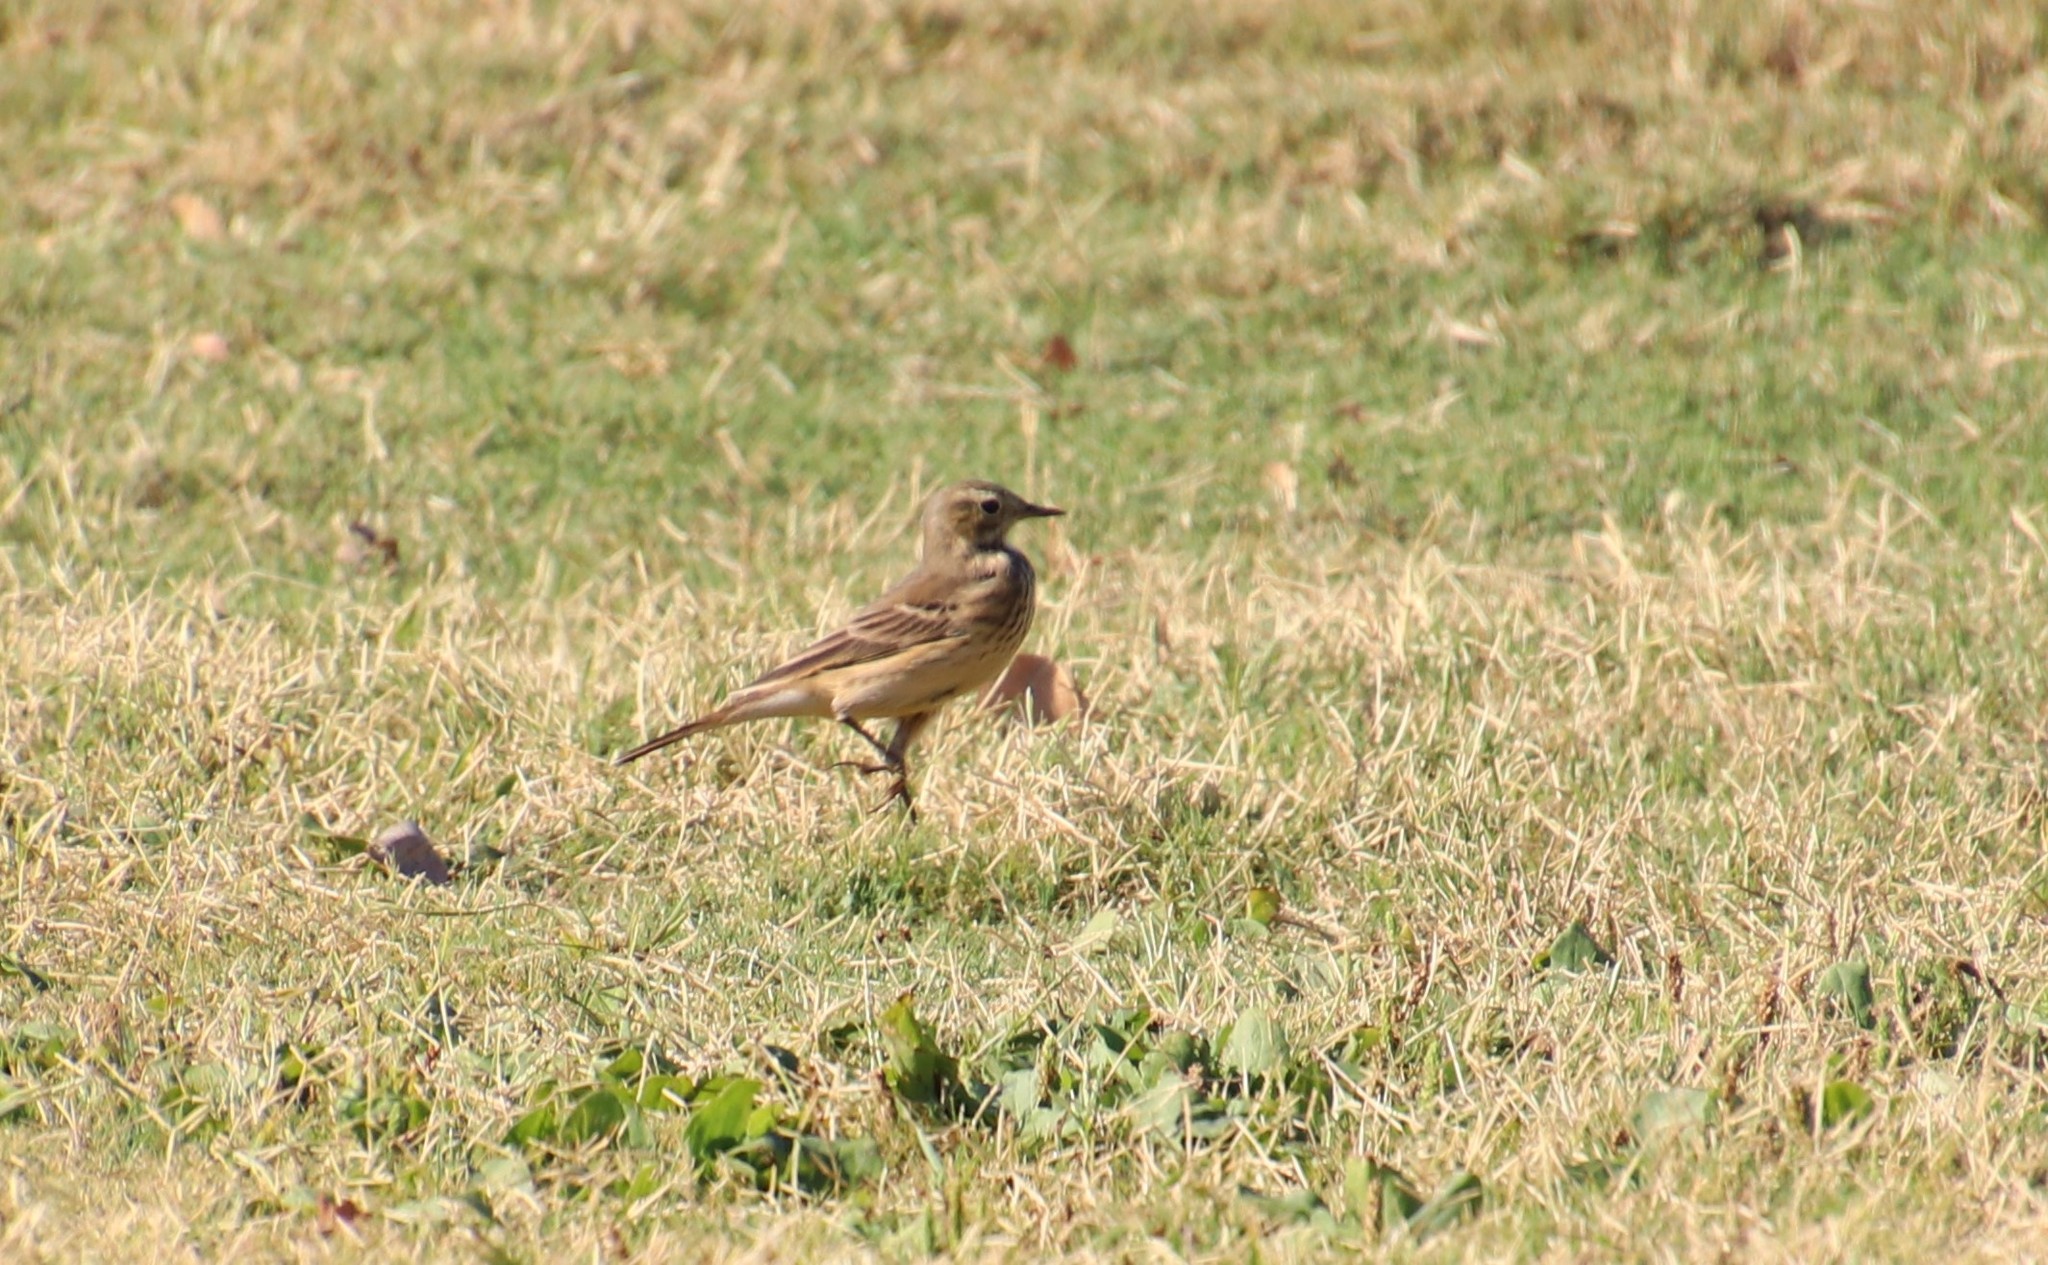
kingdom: Animalia
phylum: Chordata
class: Aves
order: Passeriformes
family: Motacillidae
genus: Anthus
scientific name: Anthus rubescens
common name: Buff-bellied pipit
